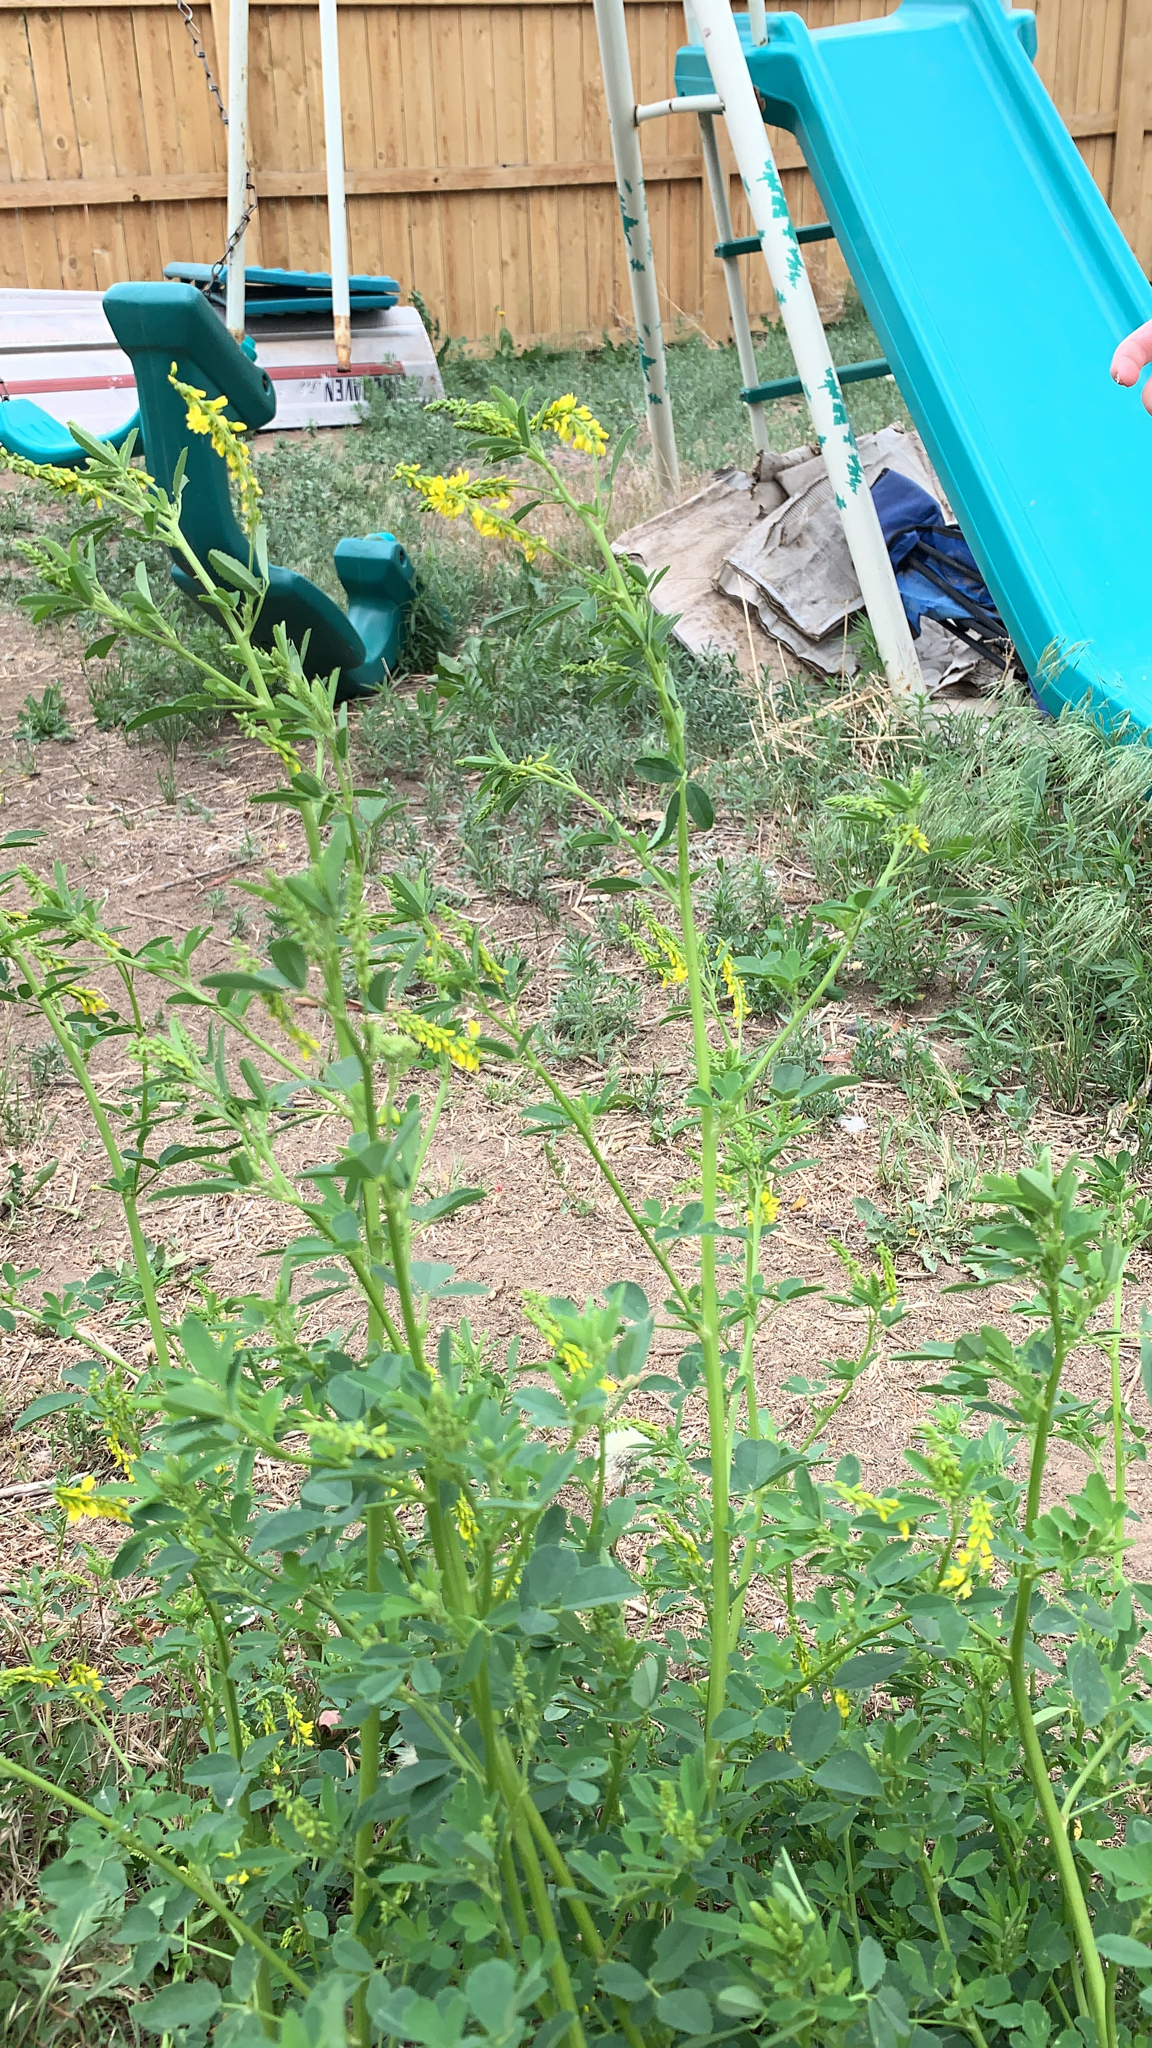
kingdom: Plantae
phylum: Tracheophyta
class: Magnoliopsida
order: Fabales
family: Fabaceae
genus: Melilotus
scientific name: Melilotus officinalis
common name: Sweetclover
